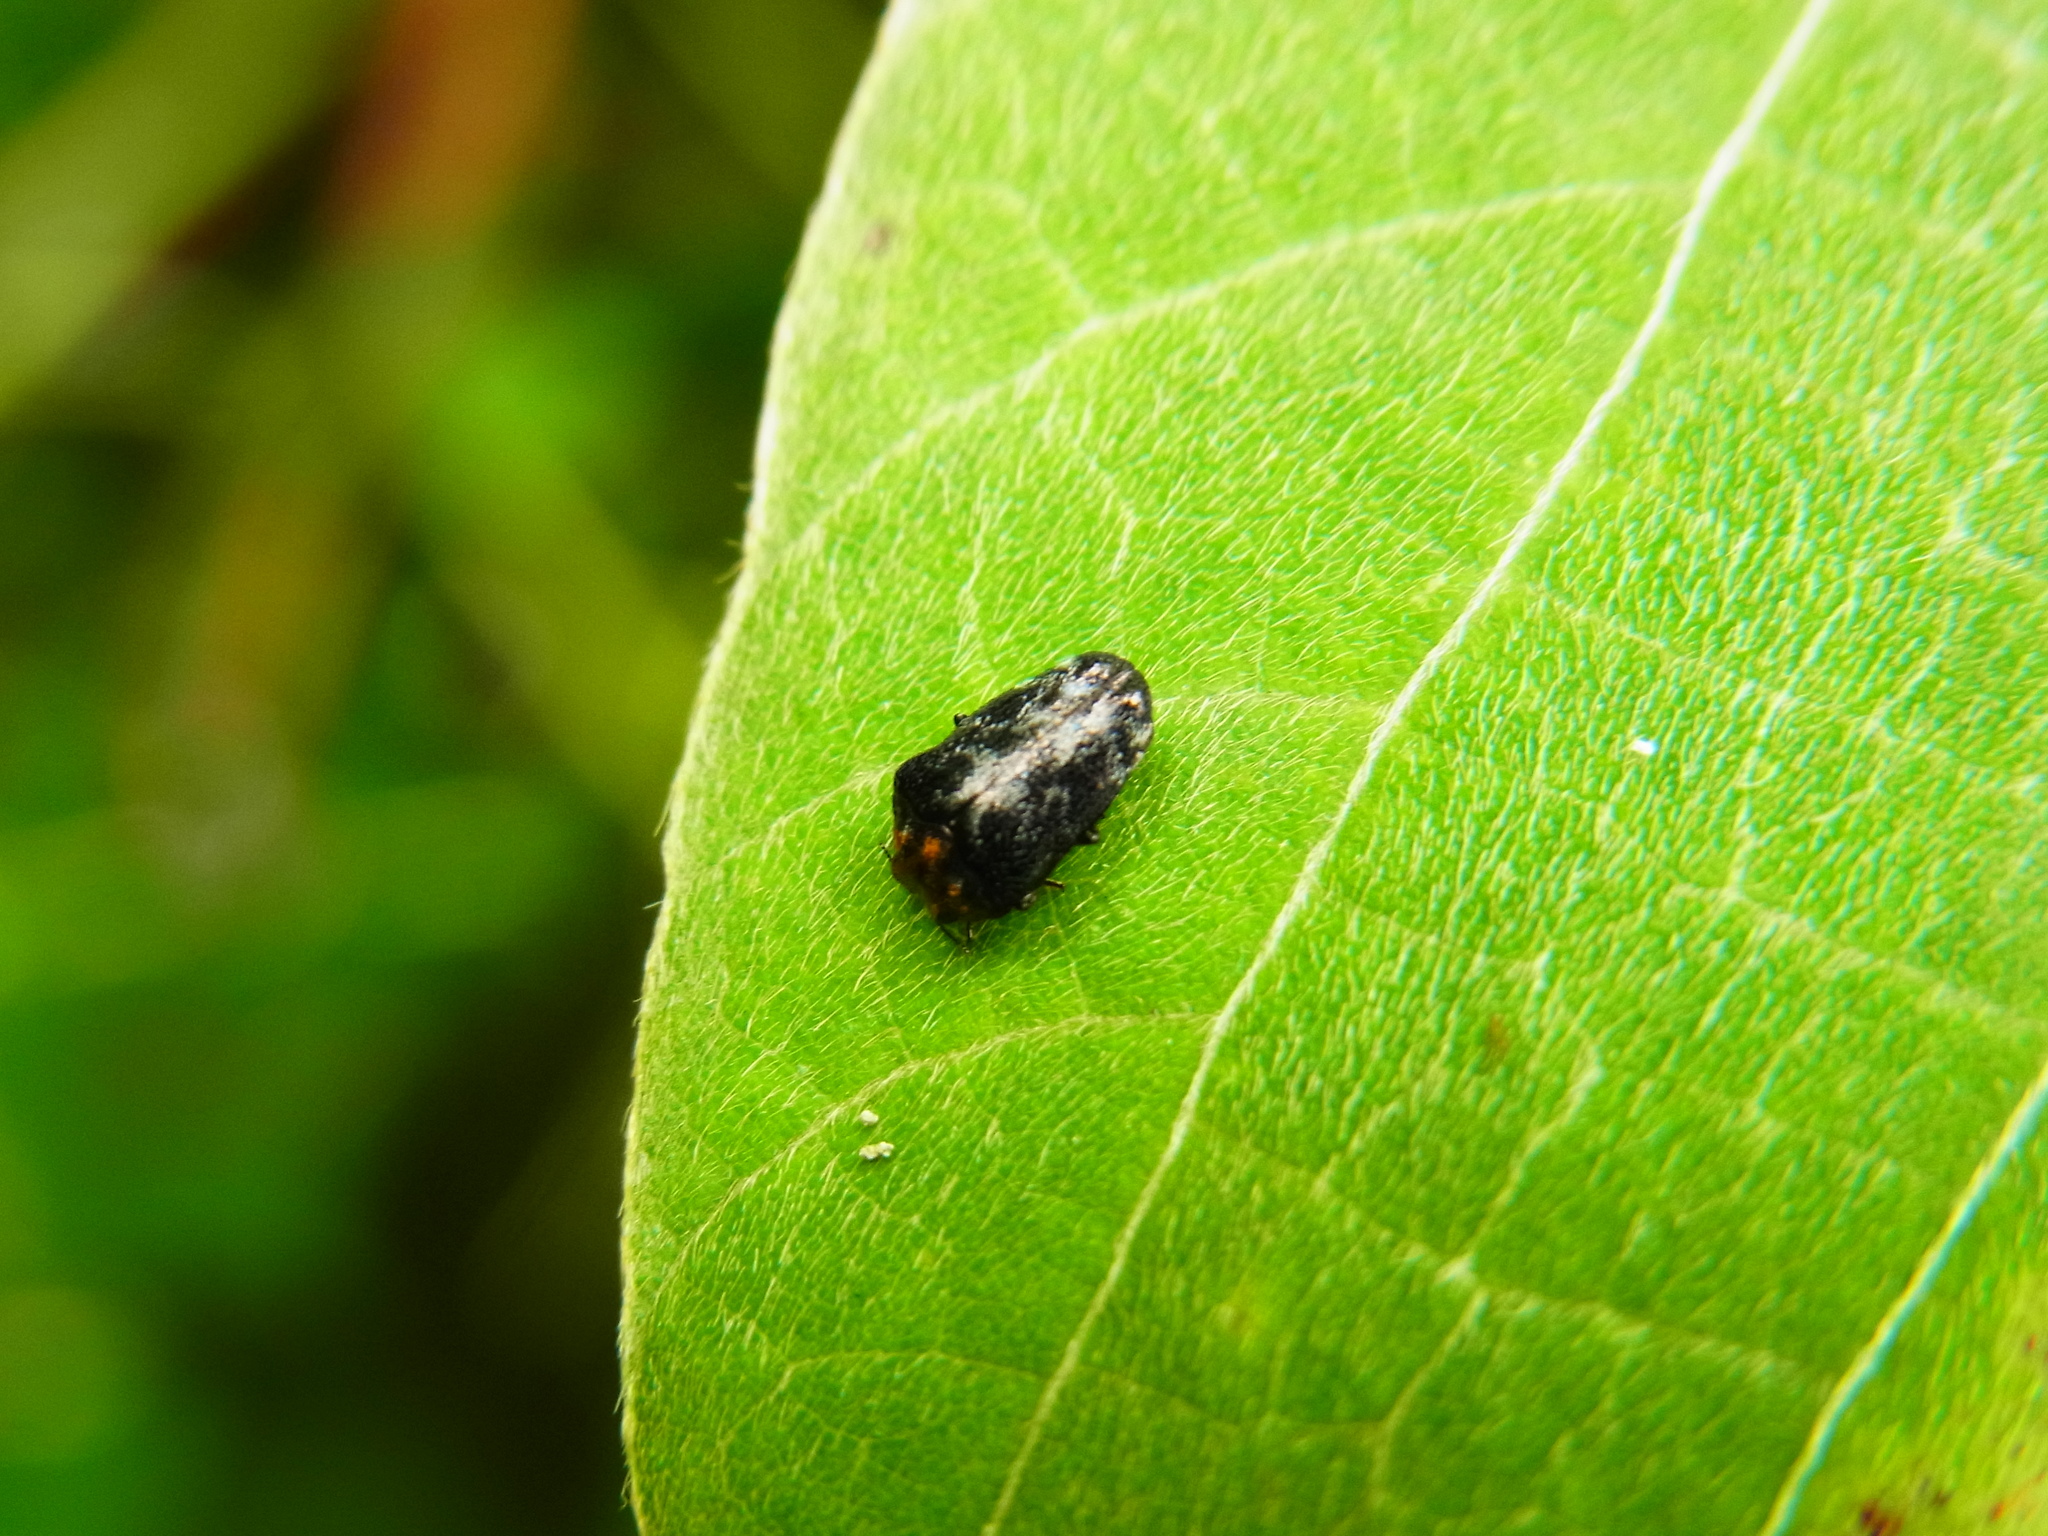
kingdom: Animalia
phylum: Arthropoda
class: Insecta
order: Coleoptera
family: Buprestidae
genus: Trachys
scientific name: Trachys auricollis
